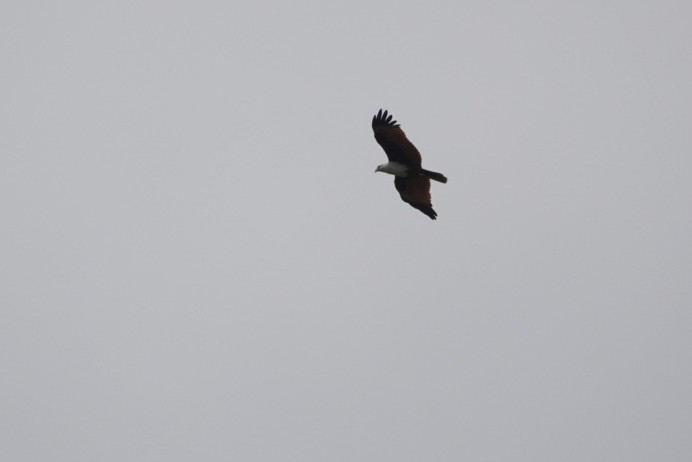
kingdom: Animalia
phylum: Chordata
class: Aves
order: Accipitriformes
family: Accipitridae
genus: Haliastur
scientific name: Haliastur indus
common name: Brahminy kite
